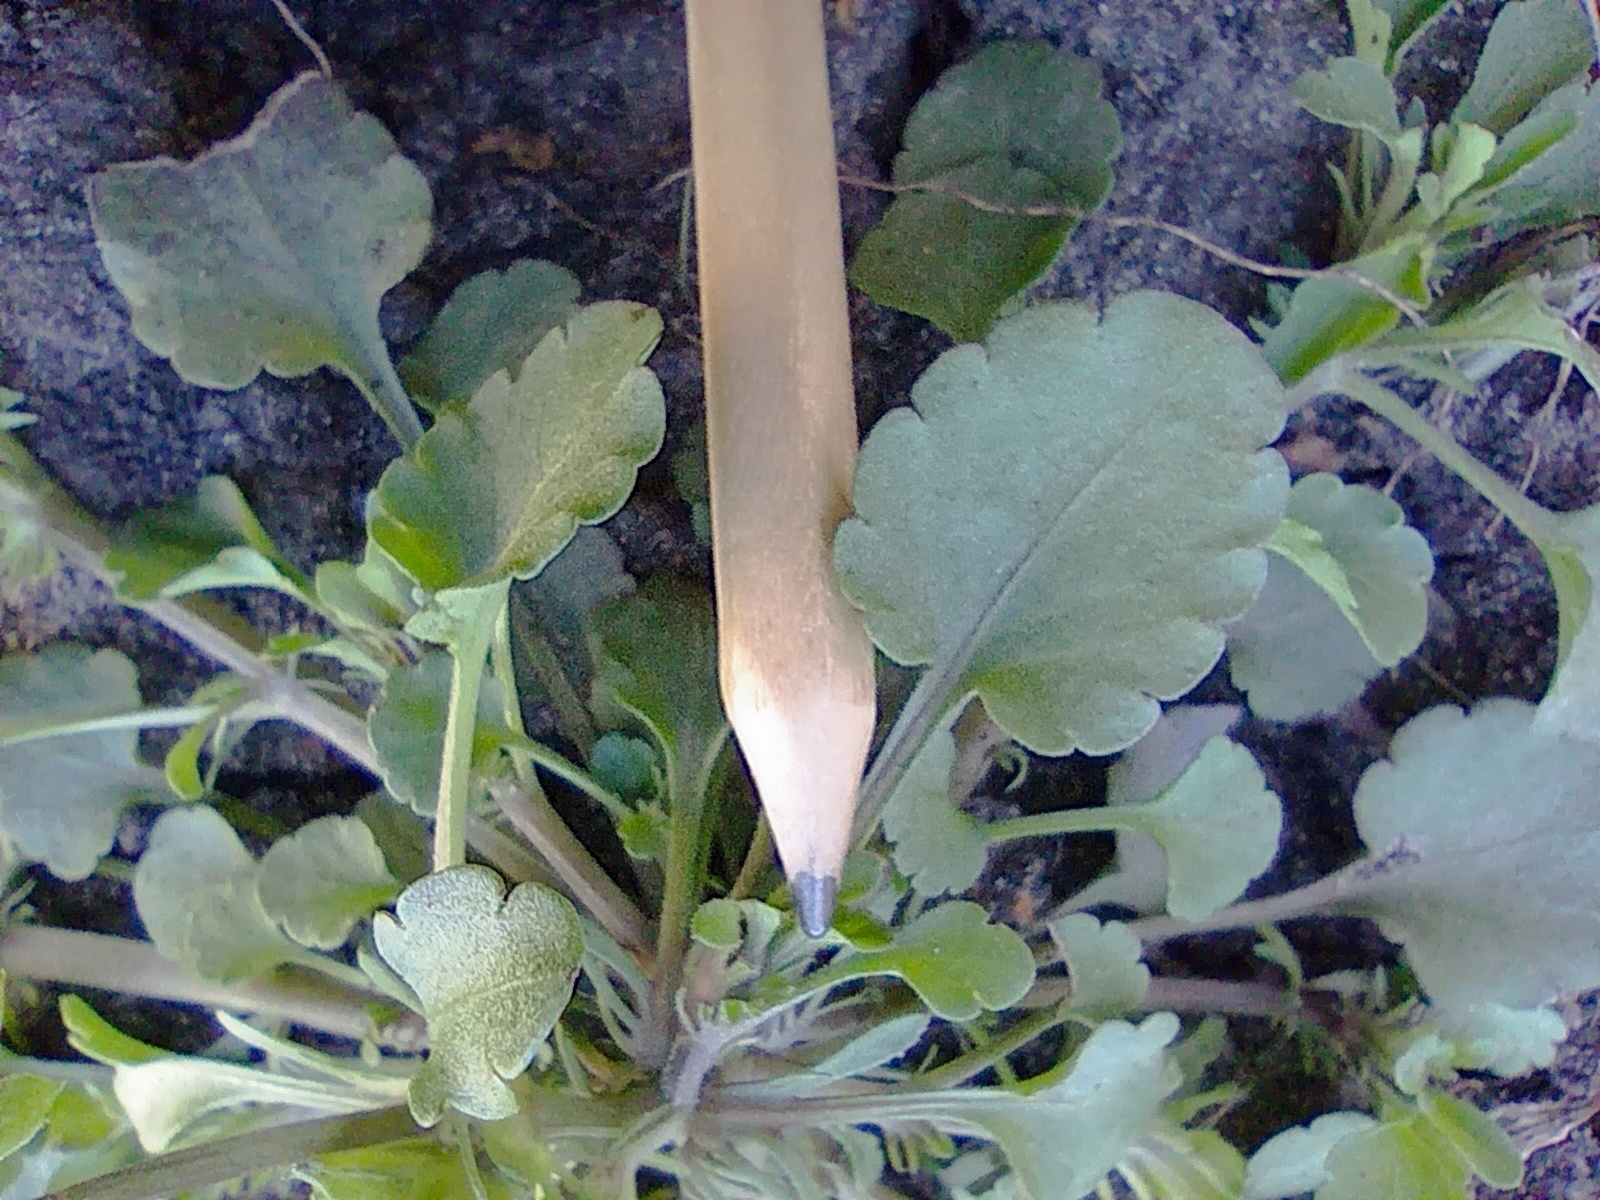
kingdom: Plantae
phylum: Tracheophyta
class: Magnoliopsida
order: Malpighiales
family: Violaceae
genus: Viola
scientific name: Viola arvensis
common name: Field pansy
